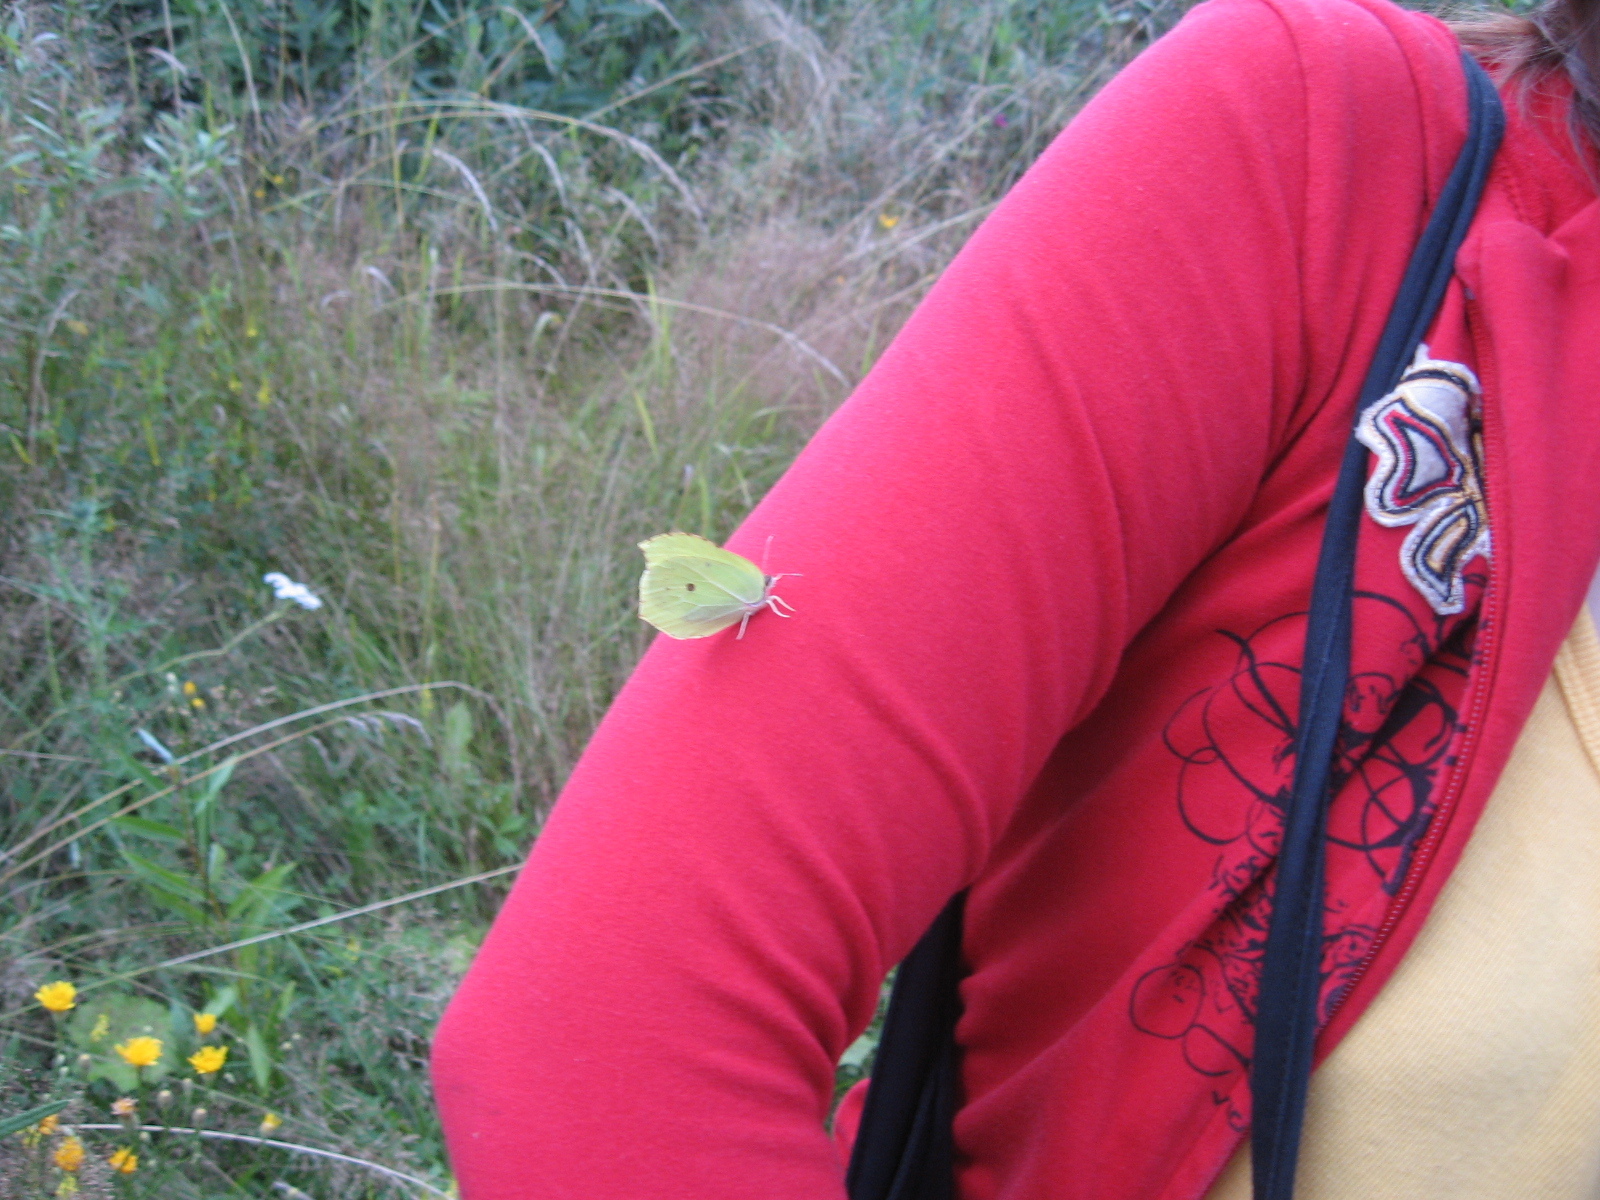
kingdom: Animalia
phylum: Arthropoda
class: Insecta
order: Lepidoptera
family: Pieridae
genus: Gonepteryx
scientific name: Gonepteryx rhamni
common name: Brimstone
